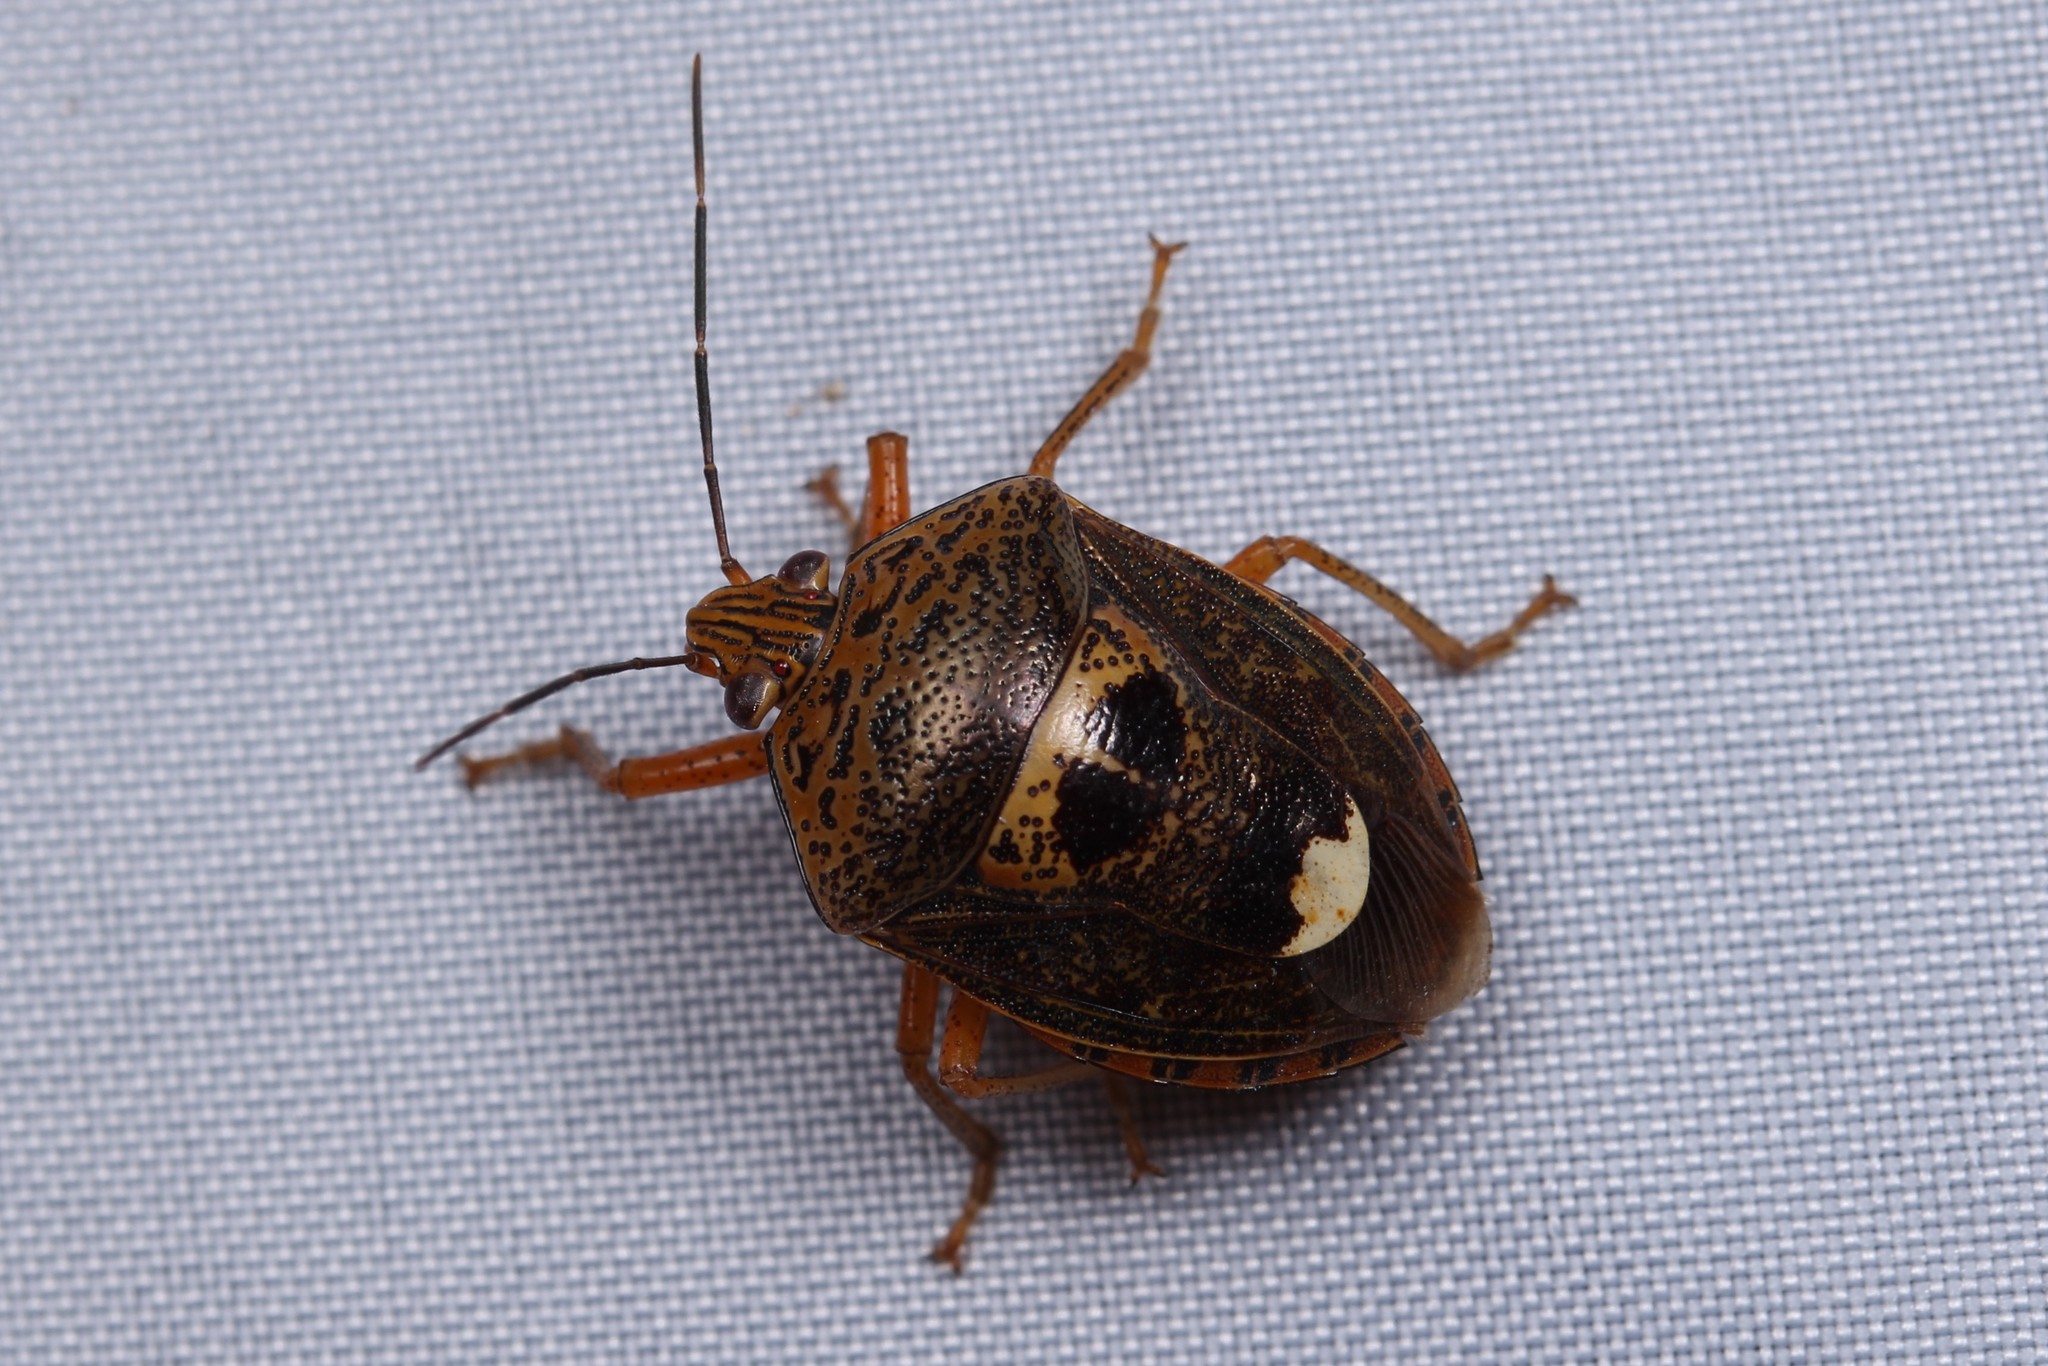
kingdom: Animalia
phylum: Arthropoda
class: Insecta
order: Hemiptera
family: Pentatomidae
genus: Axiagastus
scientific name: Axiagastus rosmarus
